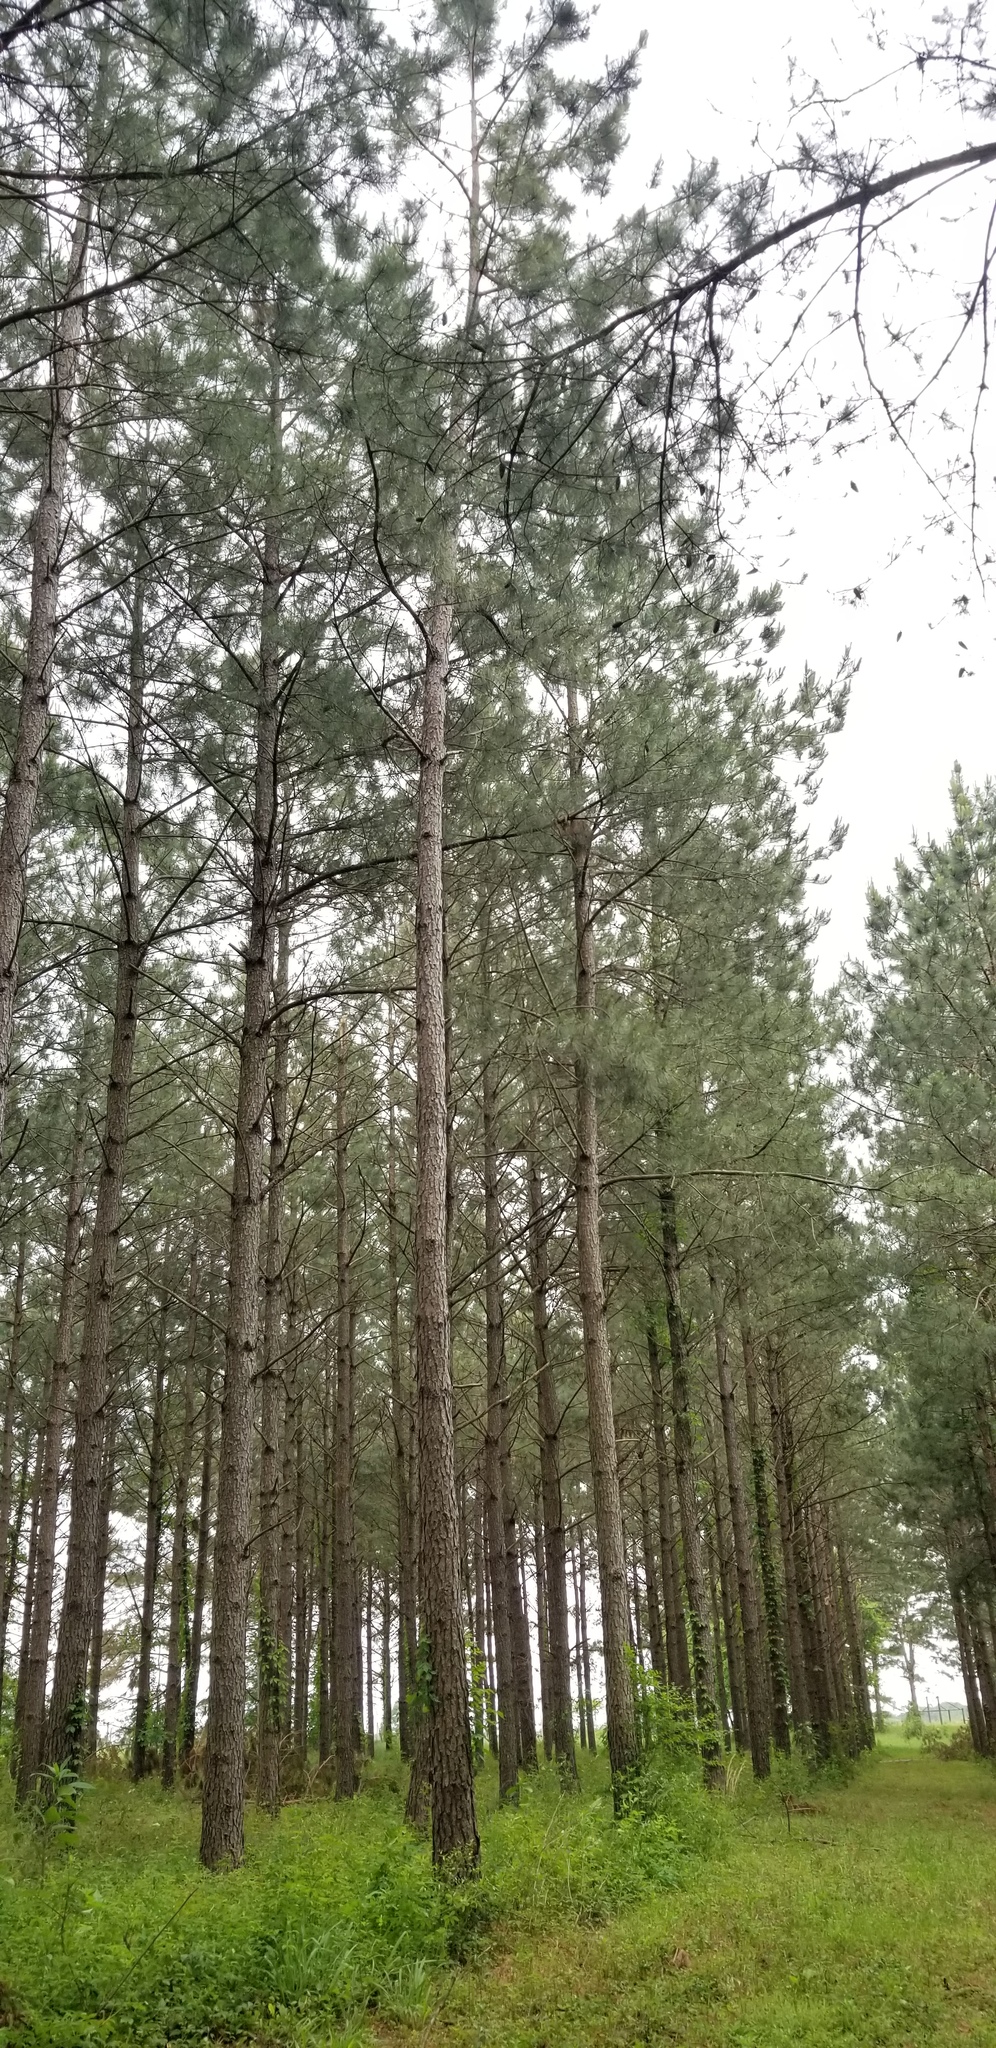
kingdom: Plantae
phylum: Tracheophyta
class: Pinopsida
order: Pinales
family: Pinaceae
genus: Pinus
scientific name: Pinus taeda
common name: Loblolly pine
